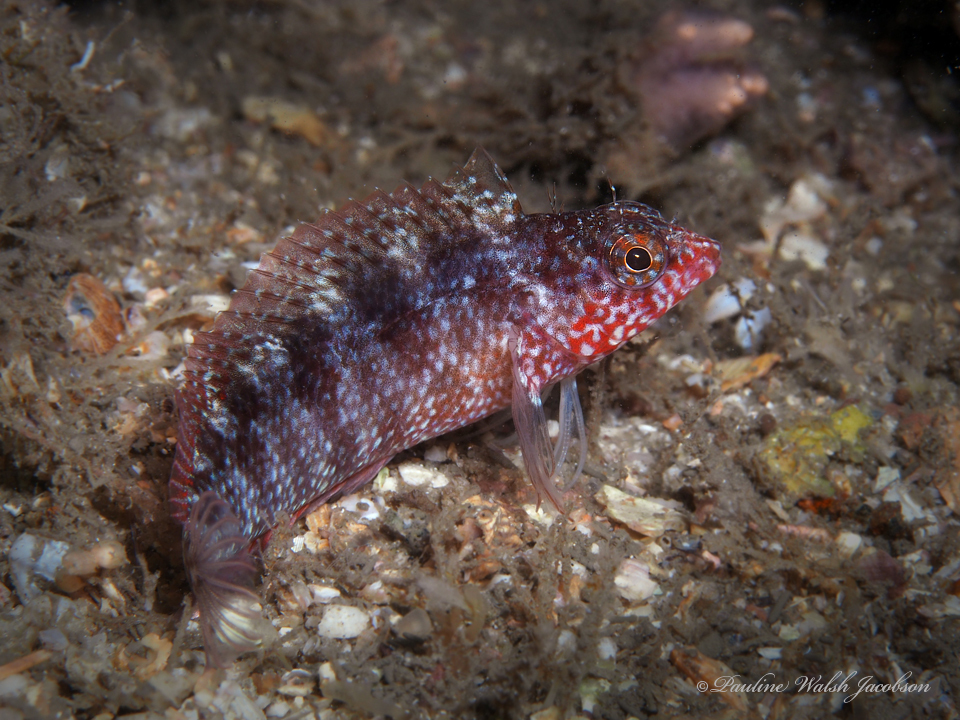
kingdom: Animalia
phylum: Chordata
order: Perciformes
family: Labrisomidae
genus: Malacoctenus
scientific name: Malacoctenus macropus
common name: Rosy blenny
